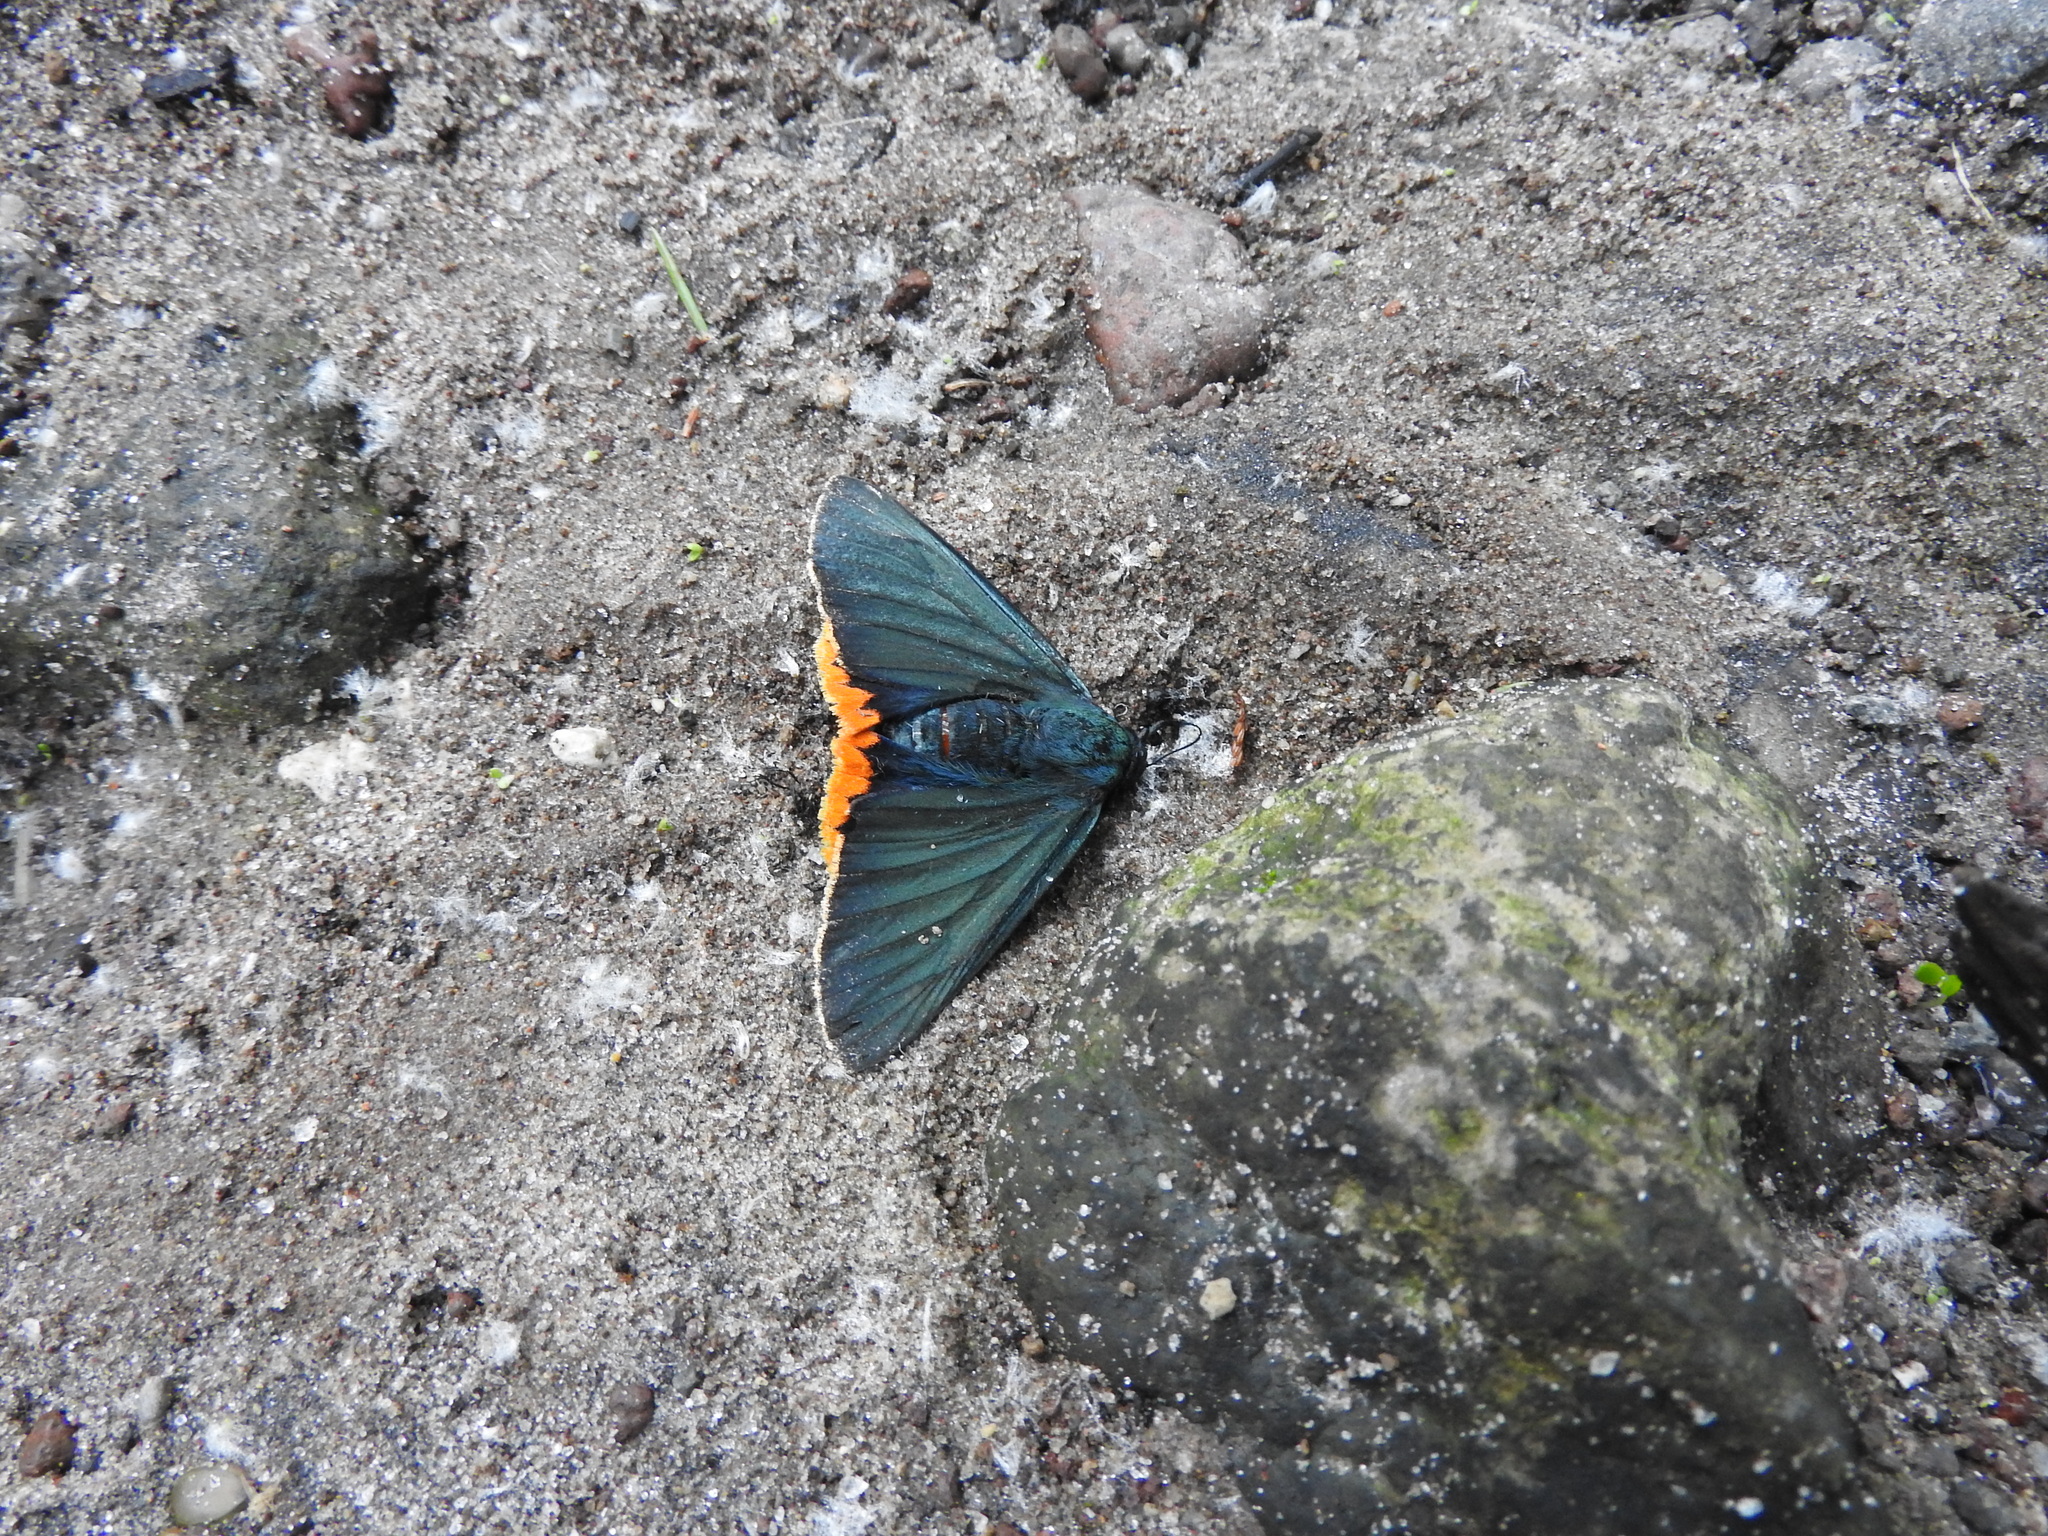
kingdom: Animalia
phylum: Arthropoda
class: Insecta
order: Lepidoptera
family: Hesperiidae
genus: Pyrrhopyge
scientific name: Pyrrhopyge Apyrrothrix chalybea
